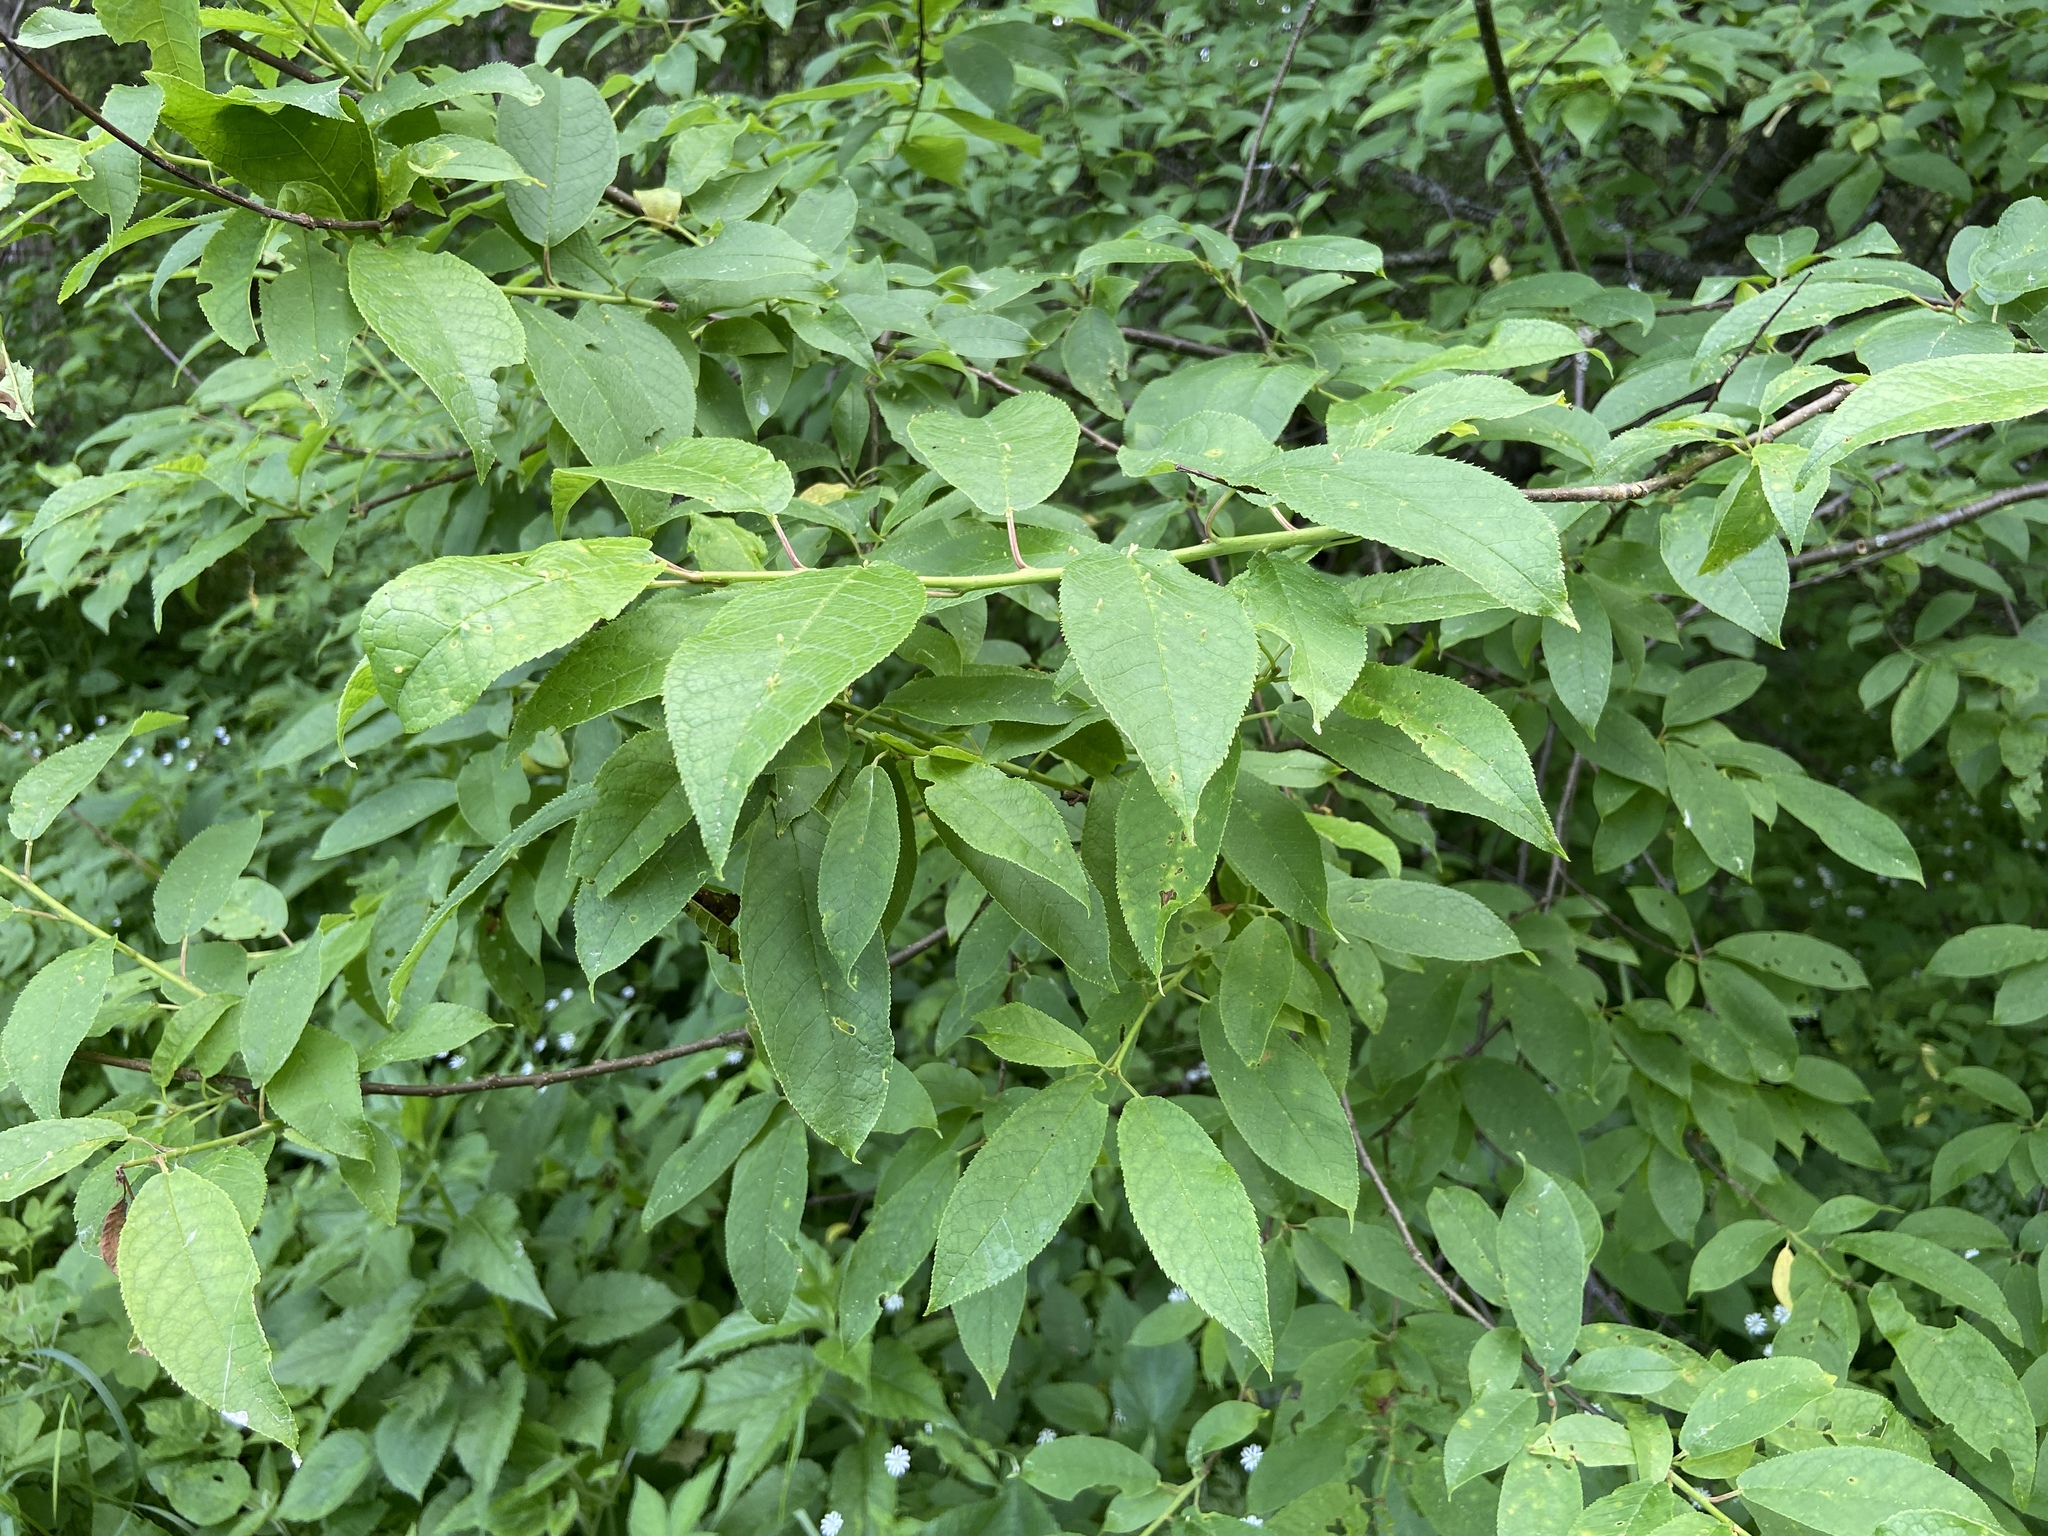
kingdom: Plantae
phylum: Tracheophyta
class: Magnoliopsida
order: Rosales
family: Rosaceae
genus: Prunus
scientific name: Prunus padus
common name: Bird cherry
